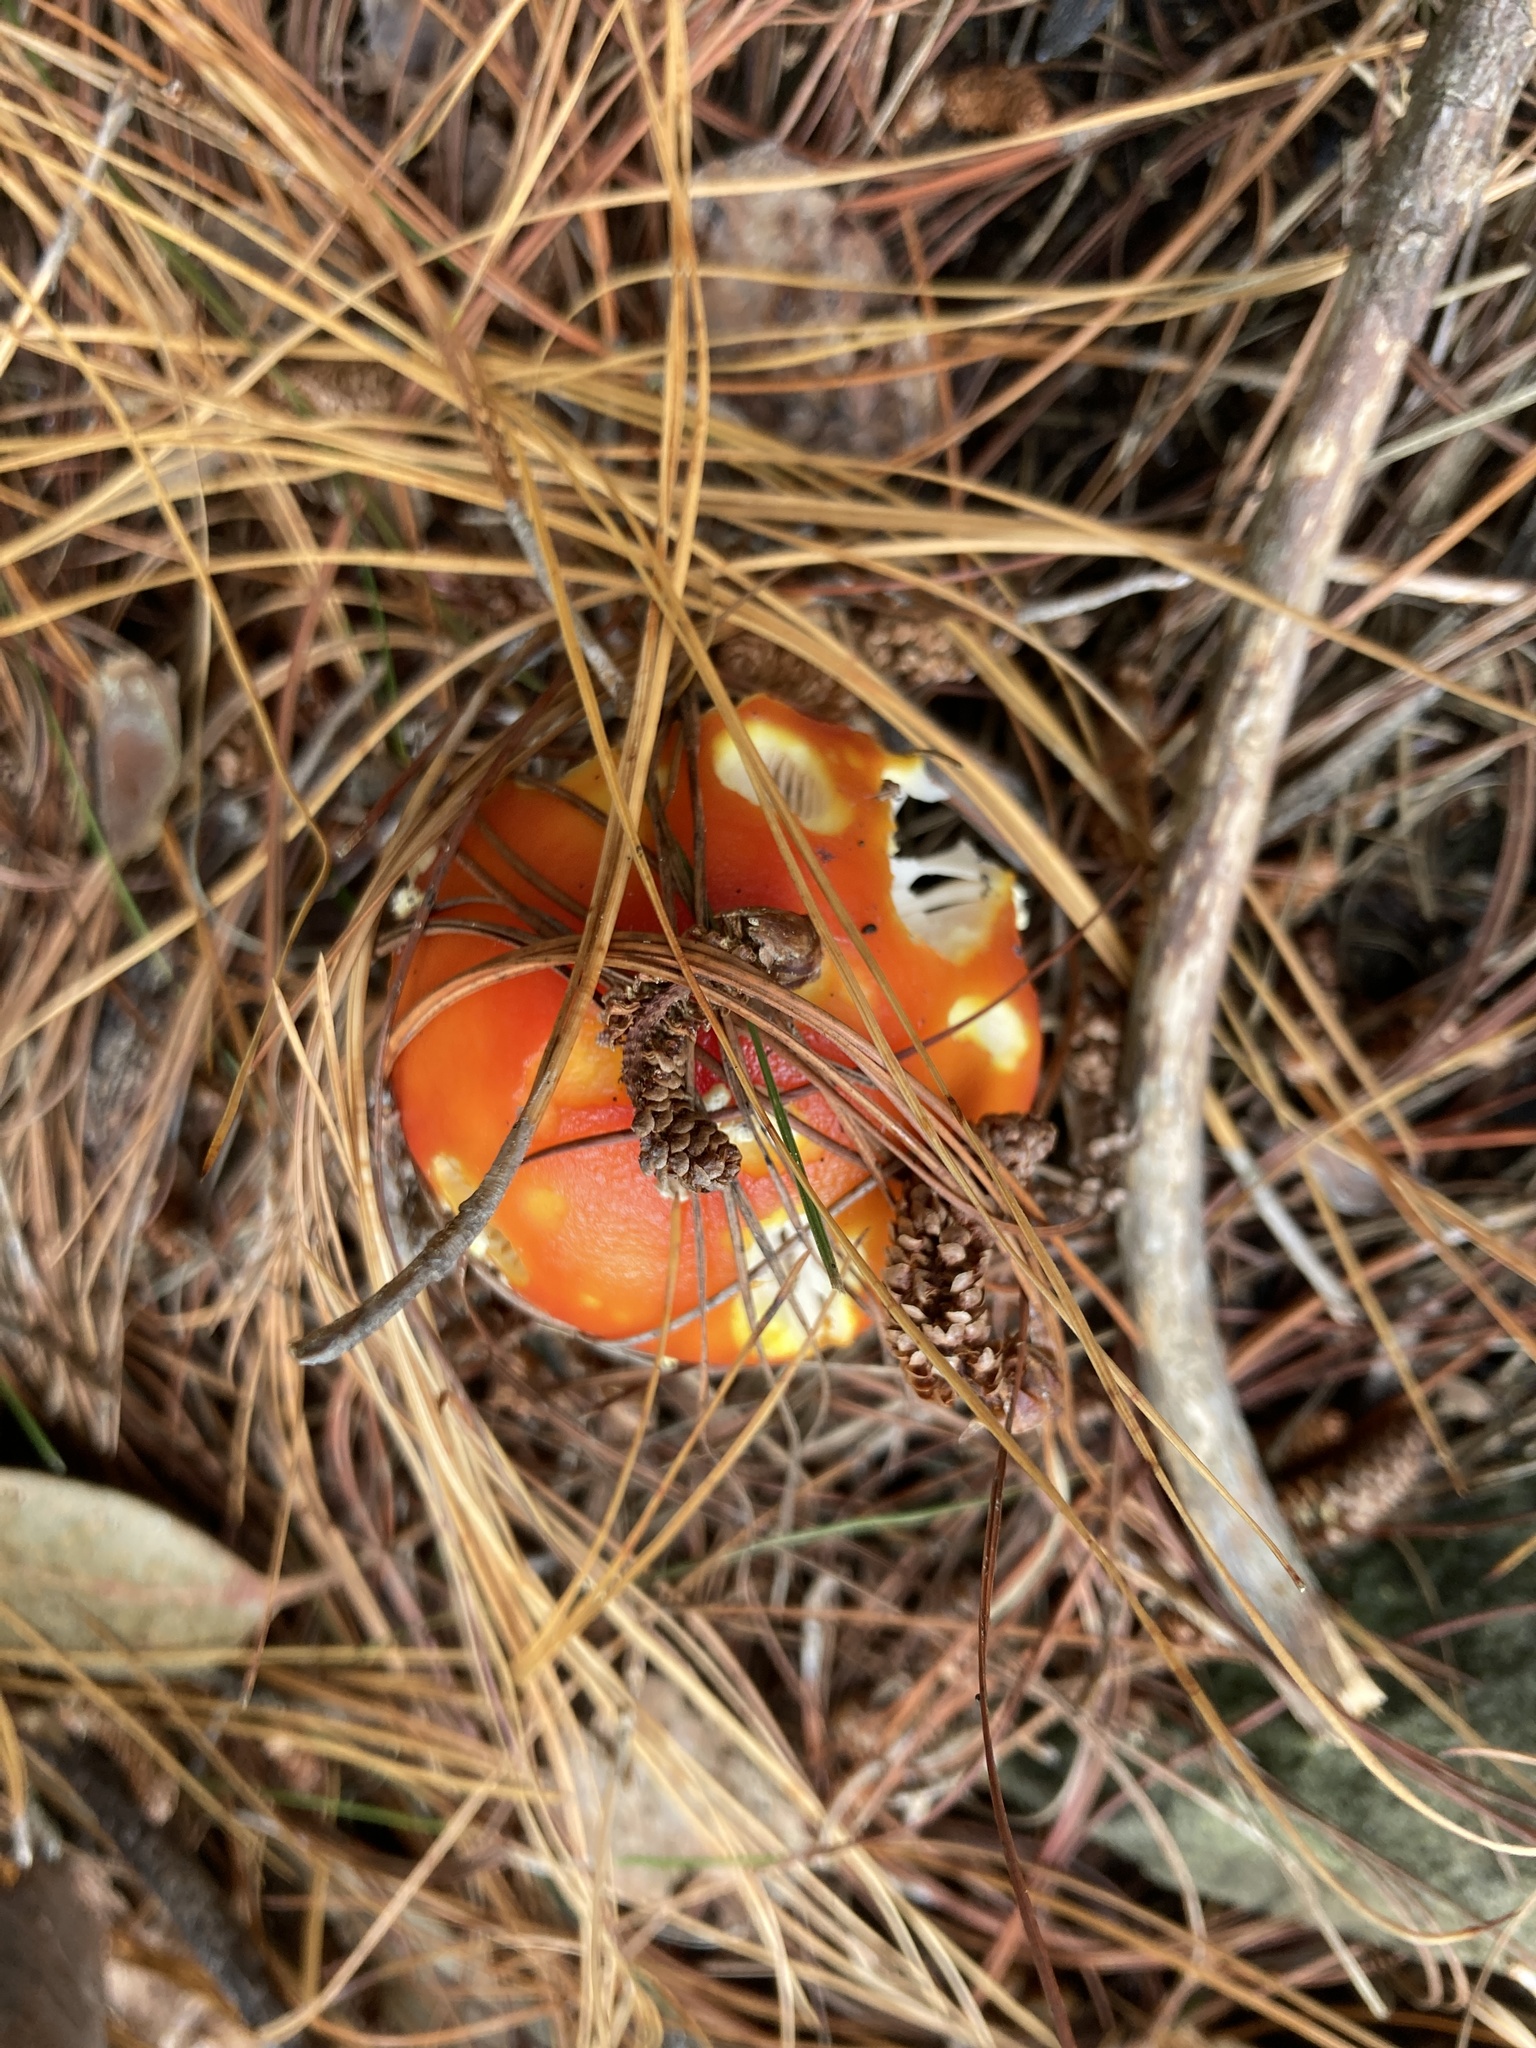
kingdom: Fungi
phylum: Basidiomycota
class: Agaricomycetes
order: Agaricales
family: Amanitaceae
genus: Amanita
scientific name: Amanita muscaria
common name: Fly agaric
